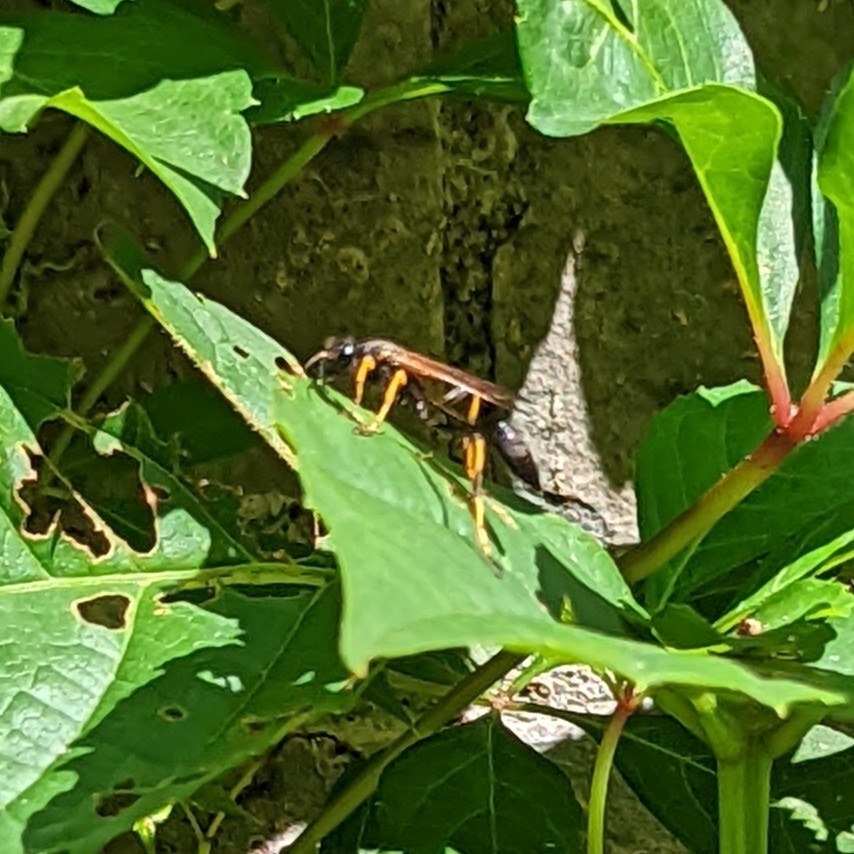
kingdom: Animalia
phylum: Arthropoda
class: Insecta
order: Hymenoptera
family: Sphecidae
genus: Sceliphron
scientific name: Sceliphron caementarium
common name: Mud dauber
